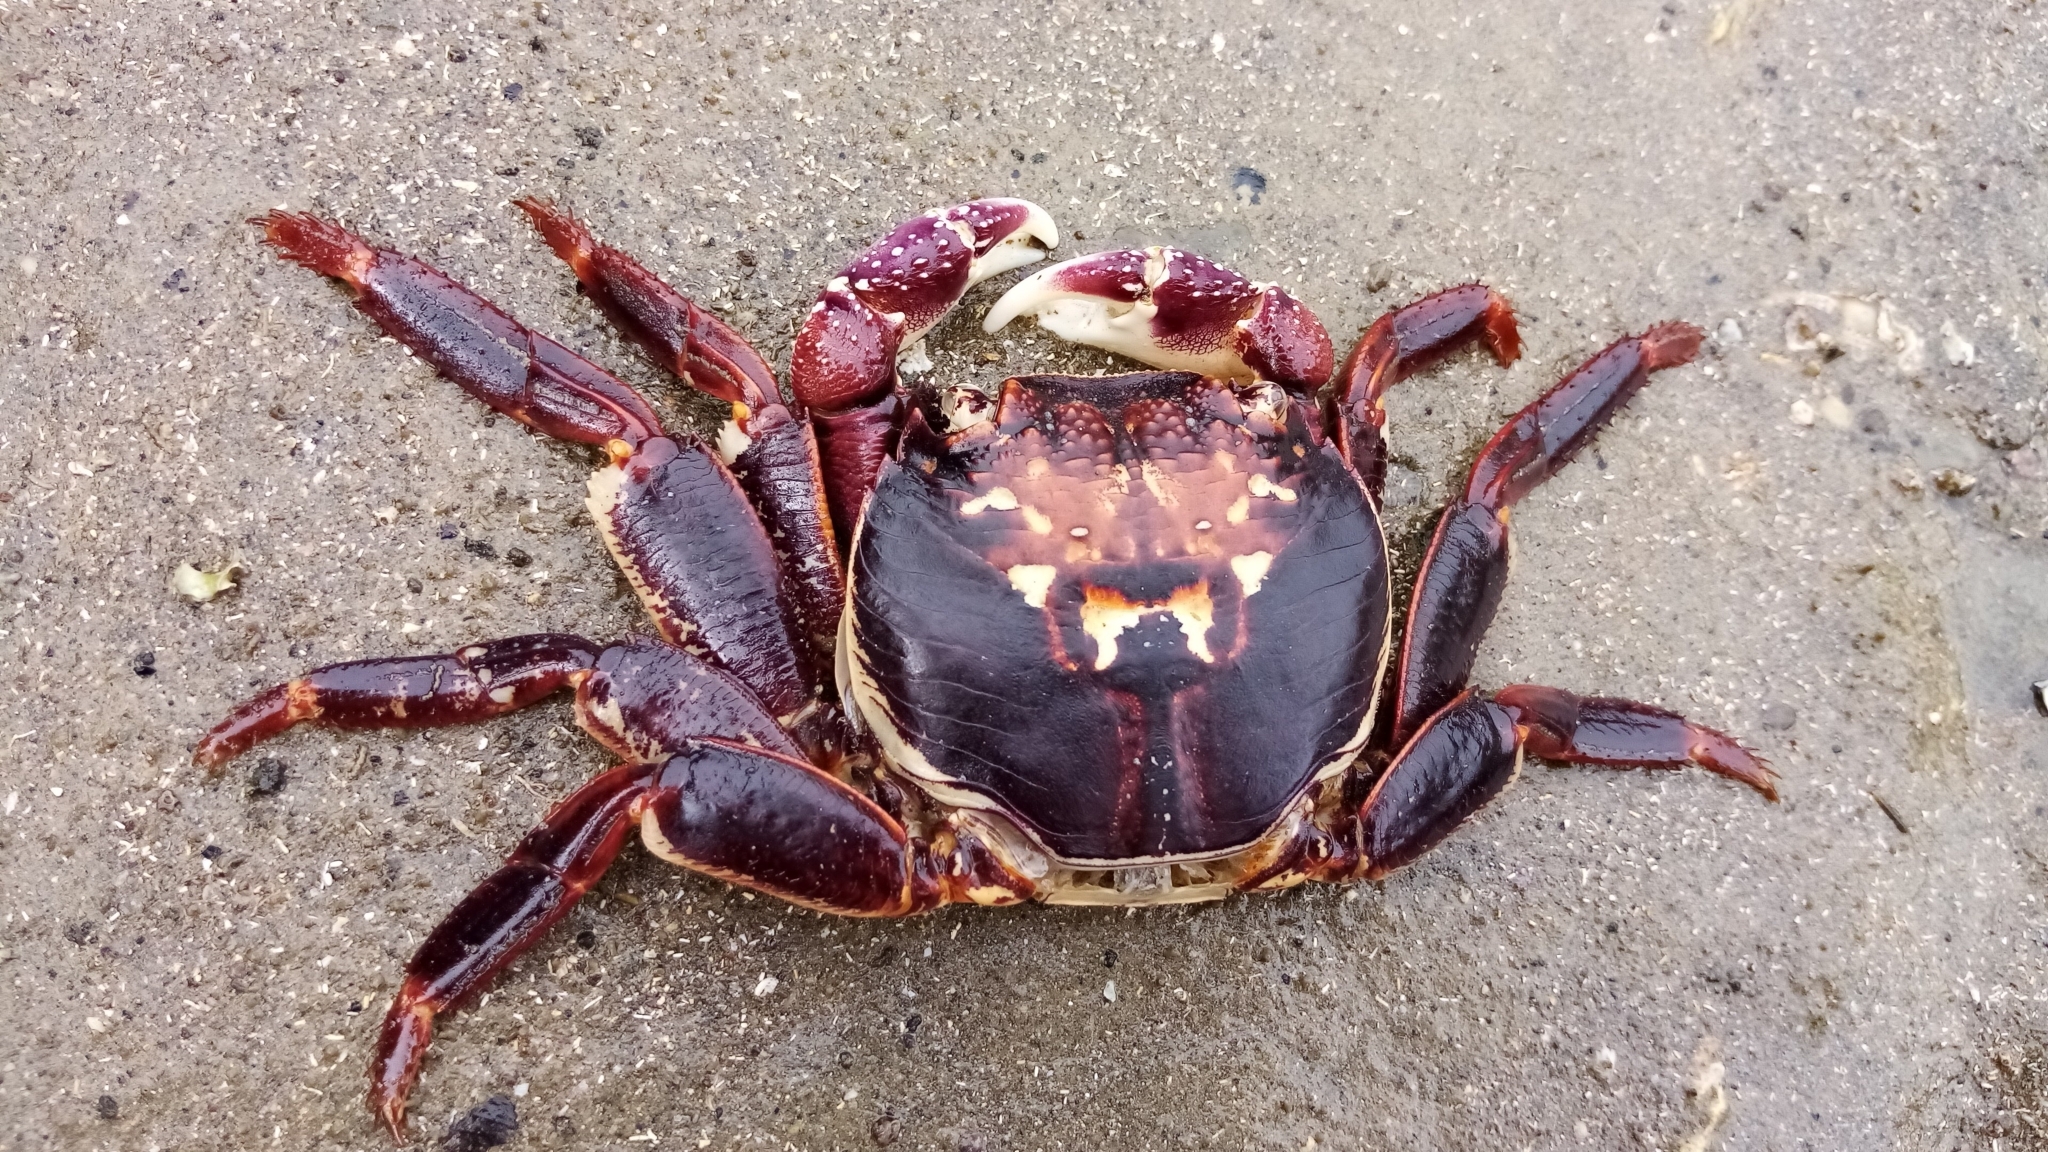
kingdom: Animalia
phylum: Arthropoda
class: Malacostraca
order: Decapoda
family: Grapsidae
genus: Leptograpsus
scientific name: Leptograpsus variegatus
